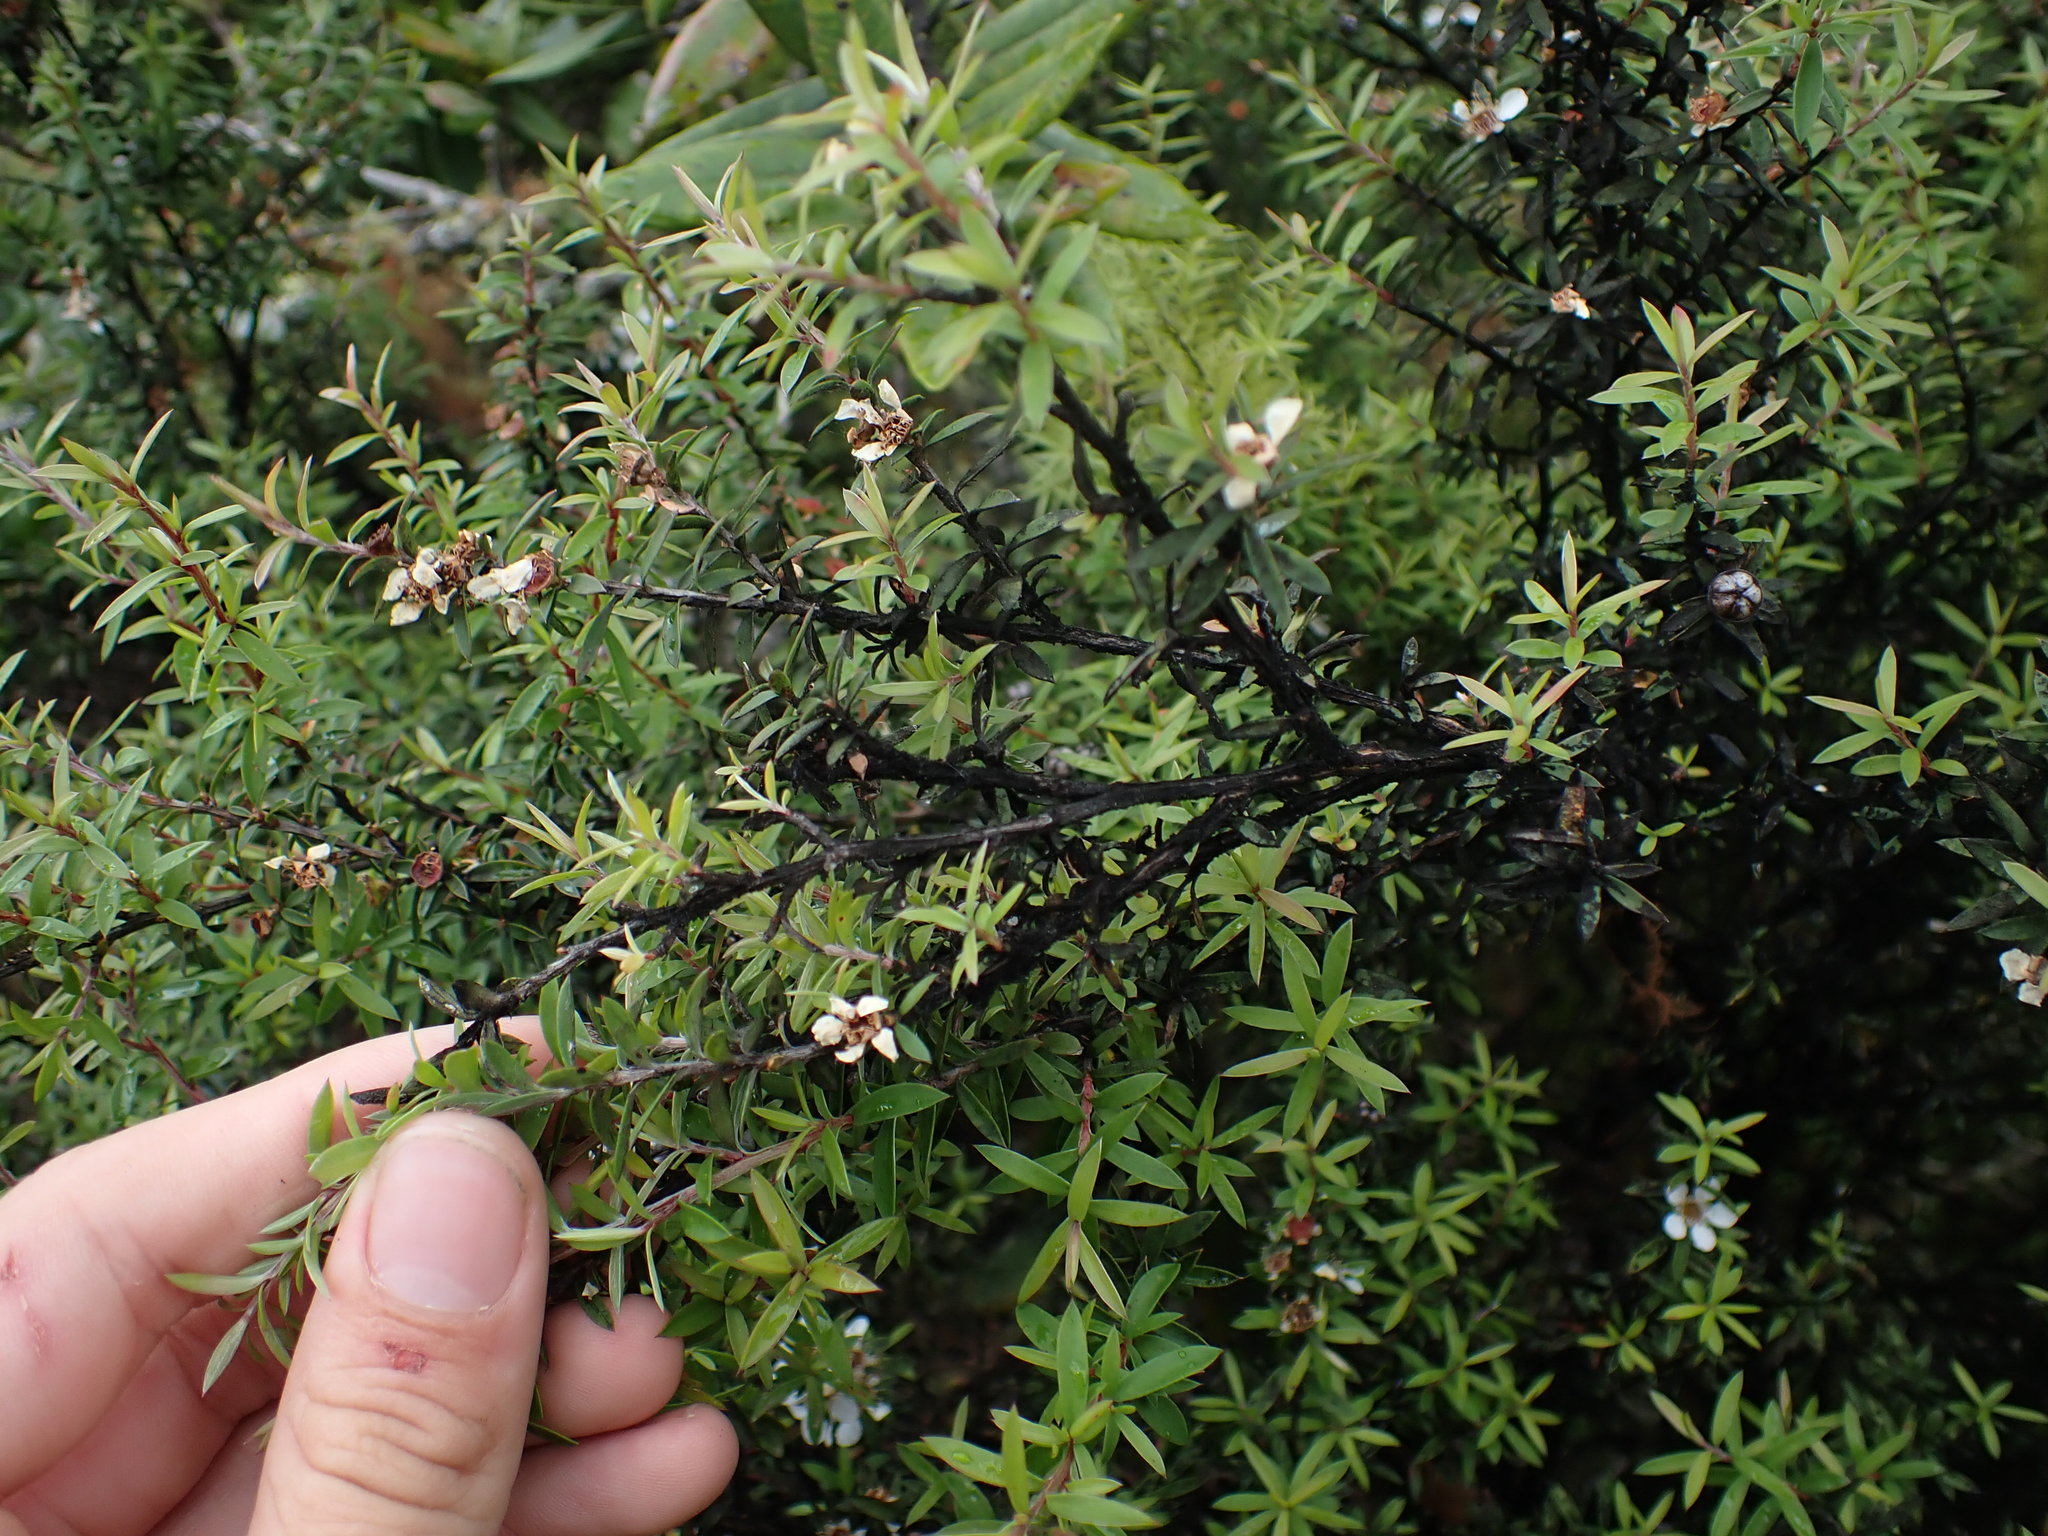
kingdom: Plantae
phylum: Tracheophyta
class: Magnoliopsida
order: Myrtales
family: Myrtaceae
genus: Leptospermum
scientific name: Leptospermum scoparium
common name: Broom tea-tree
